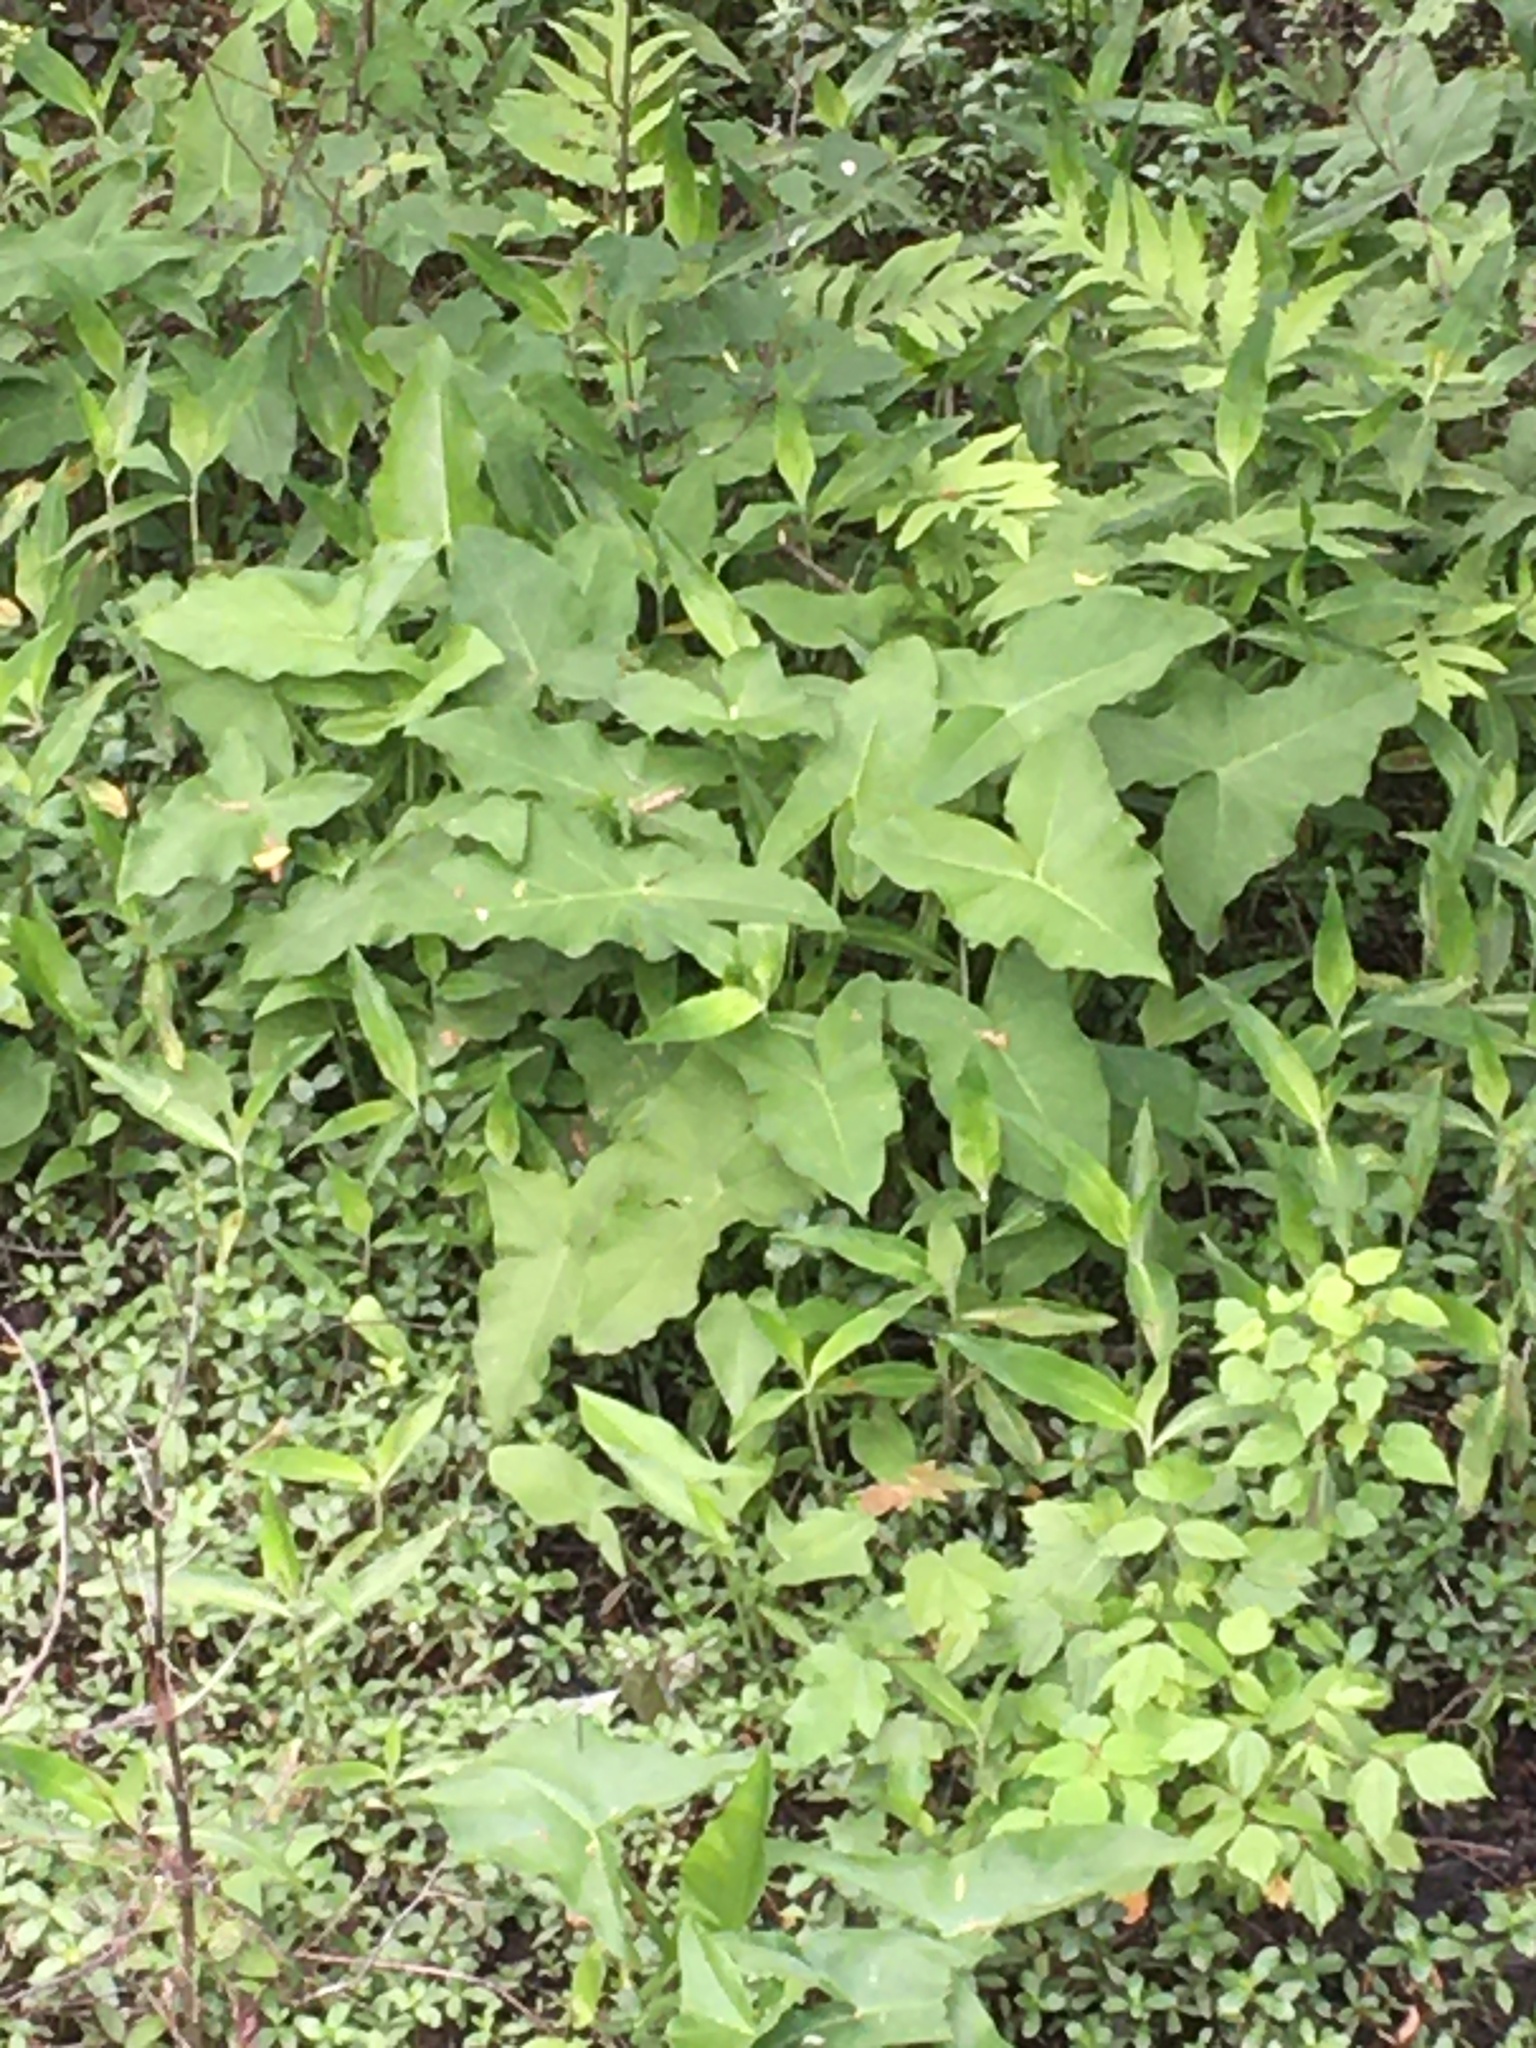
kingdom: Plantae
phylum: Tracheophyta
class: Liliopsida
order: Alismatales
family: Araceae
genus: Peltandra
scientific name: Peltandra virginica
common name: Arrow arum
